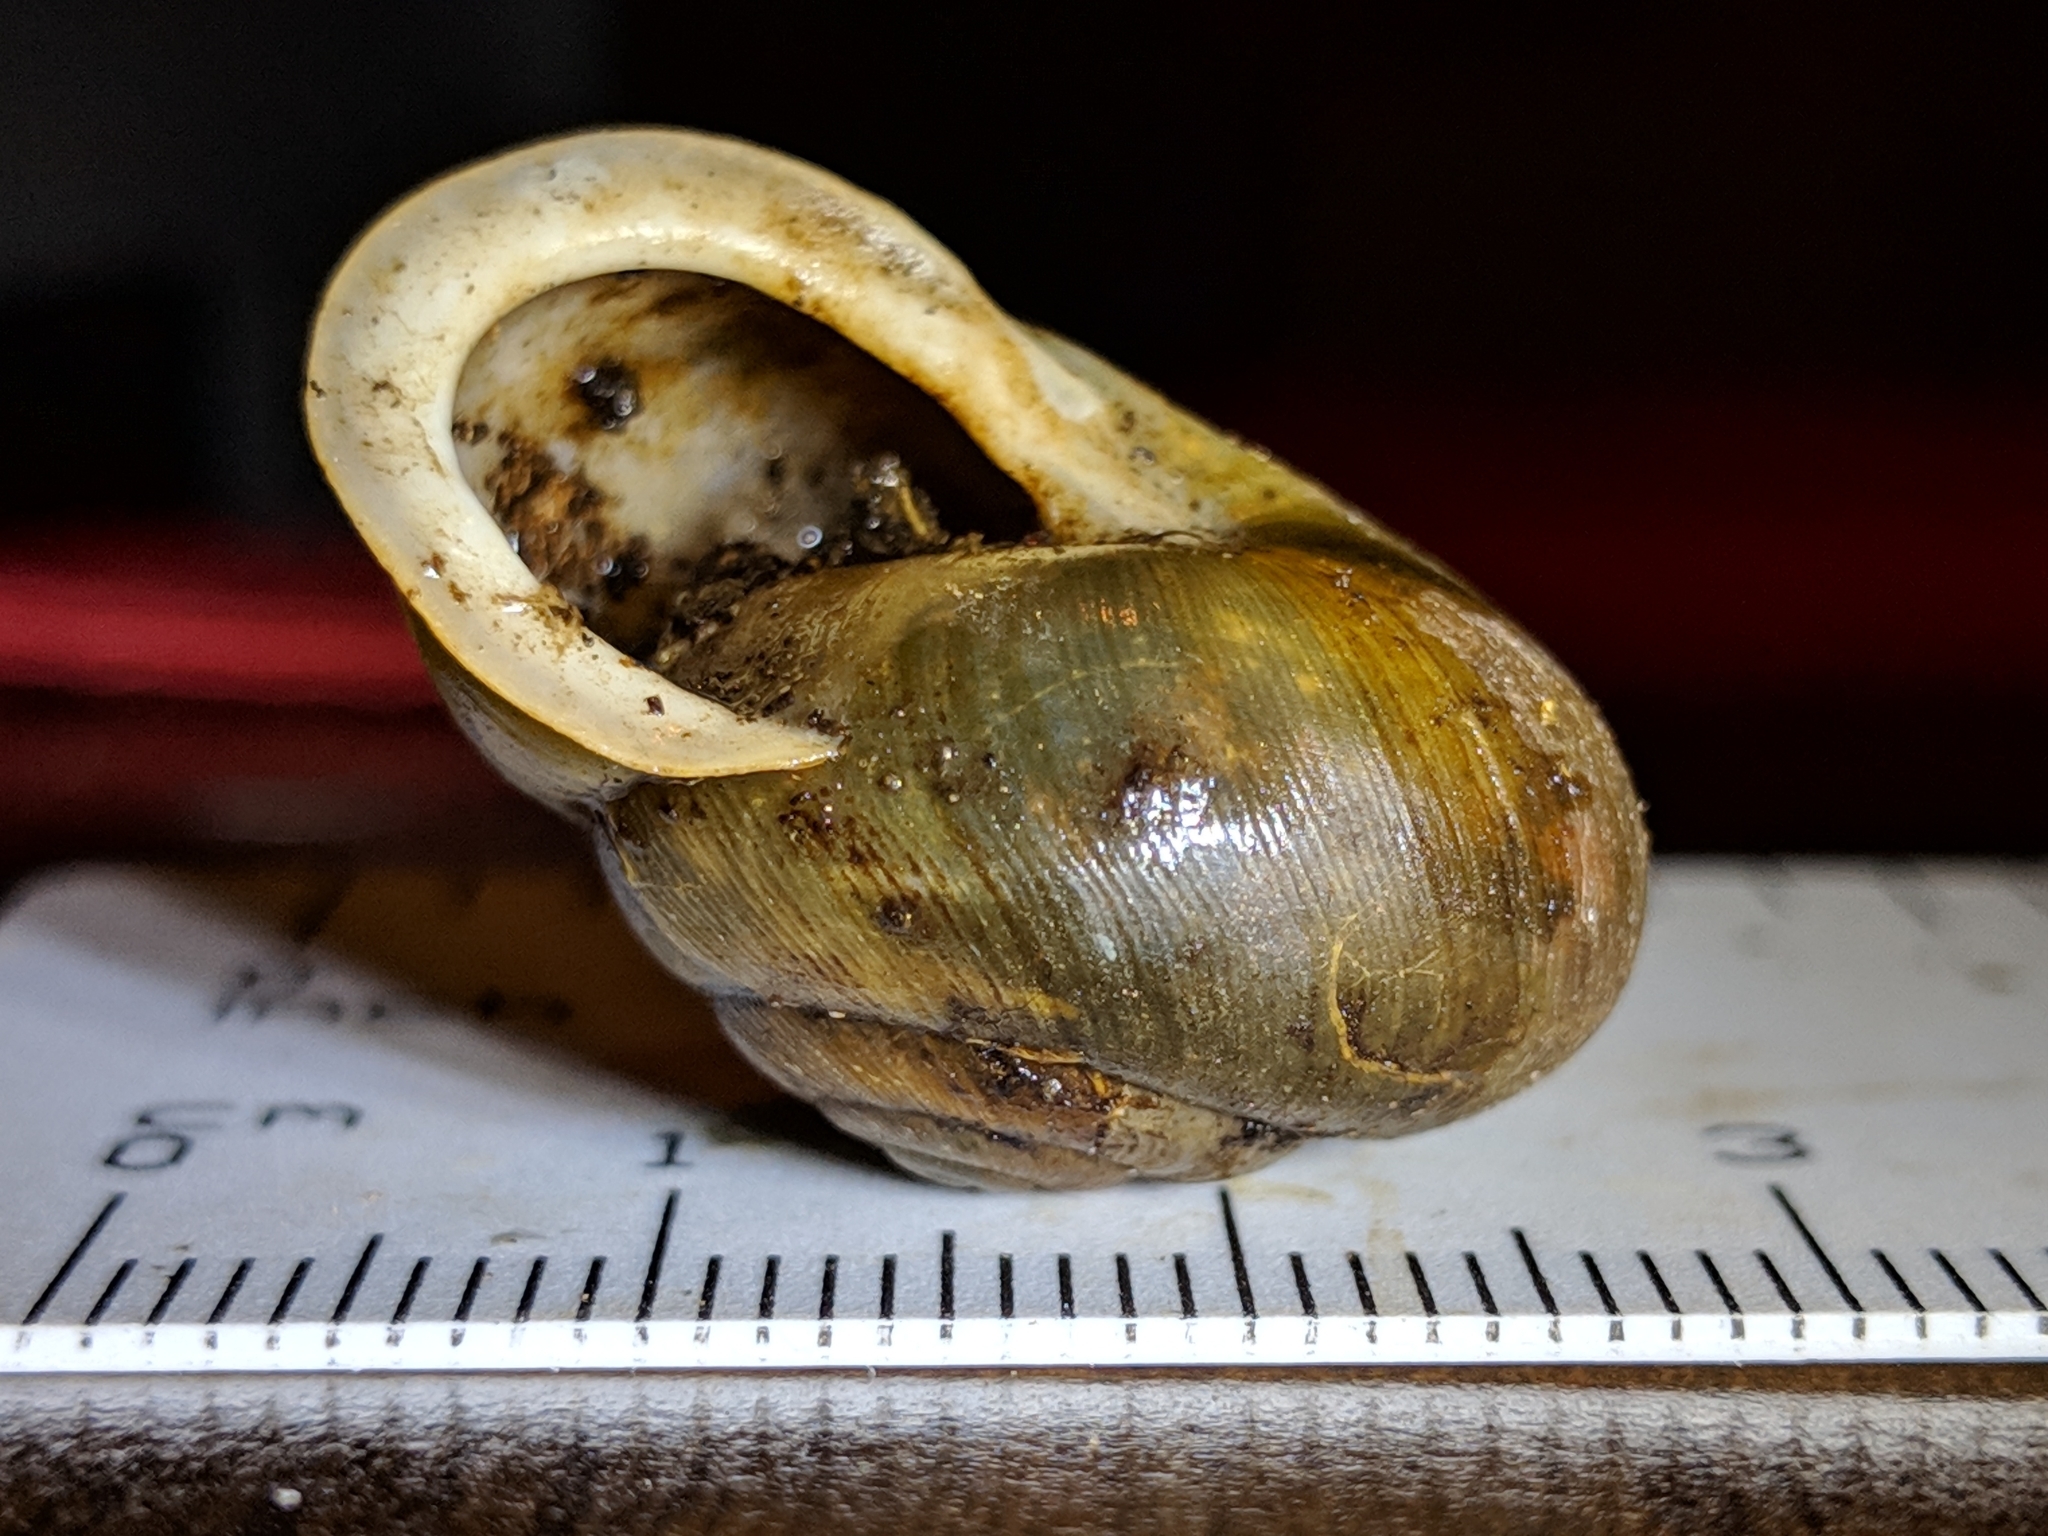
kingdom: Animalia
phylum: Mollusca
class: Gastropoda
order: Stylommatophora
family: Polygyridae
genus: Neohelix
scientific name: Neohelix albolabris
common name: Eastern whitelip
